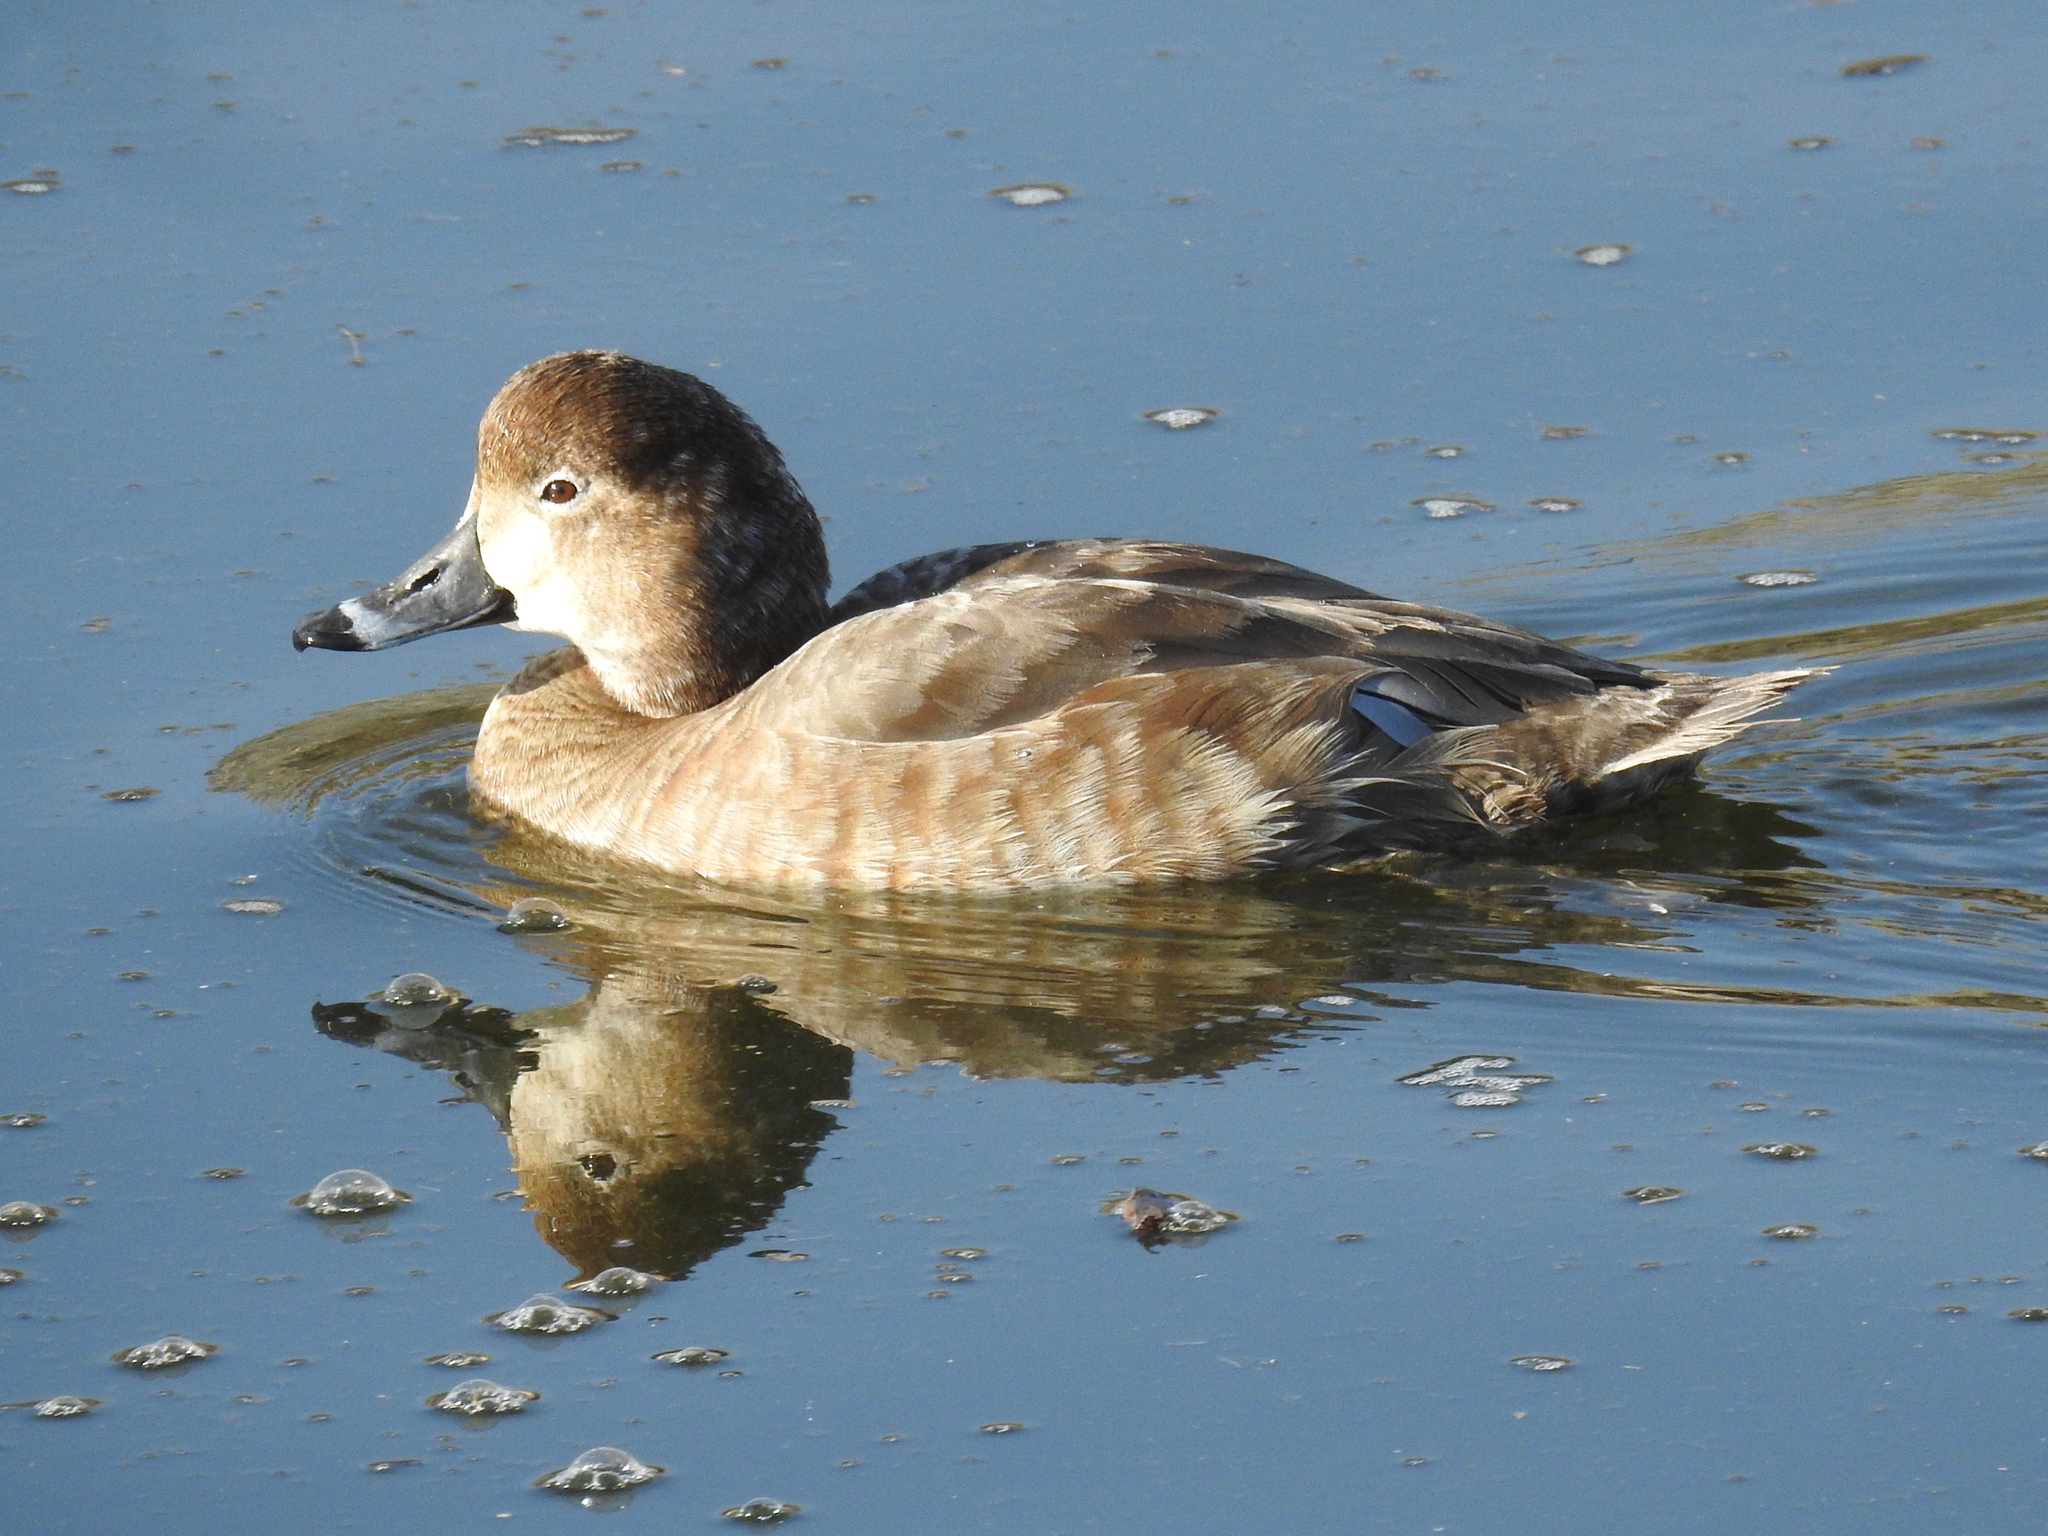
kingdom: Animalia
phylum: Chordata
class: Aves
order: Anseriformes
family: Anatidae
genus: Aythya
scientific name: Aythya americana
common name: Redhead
